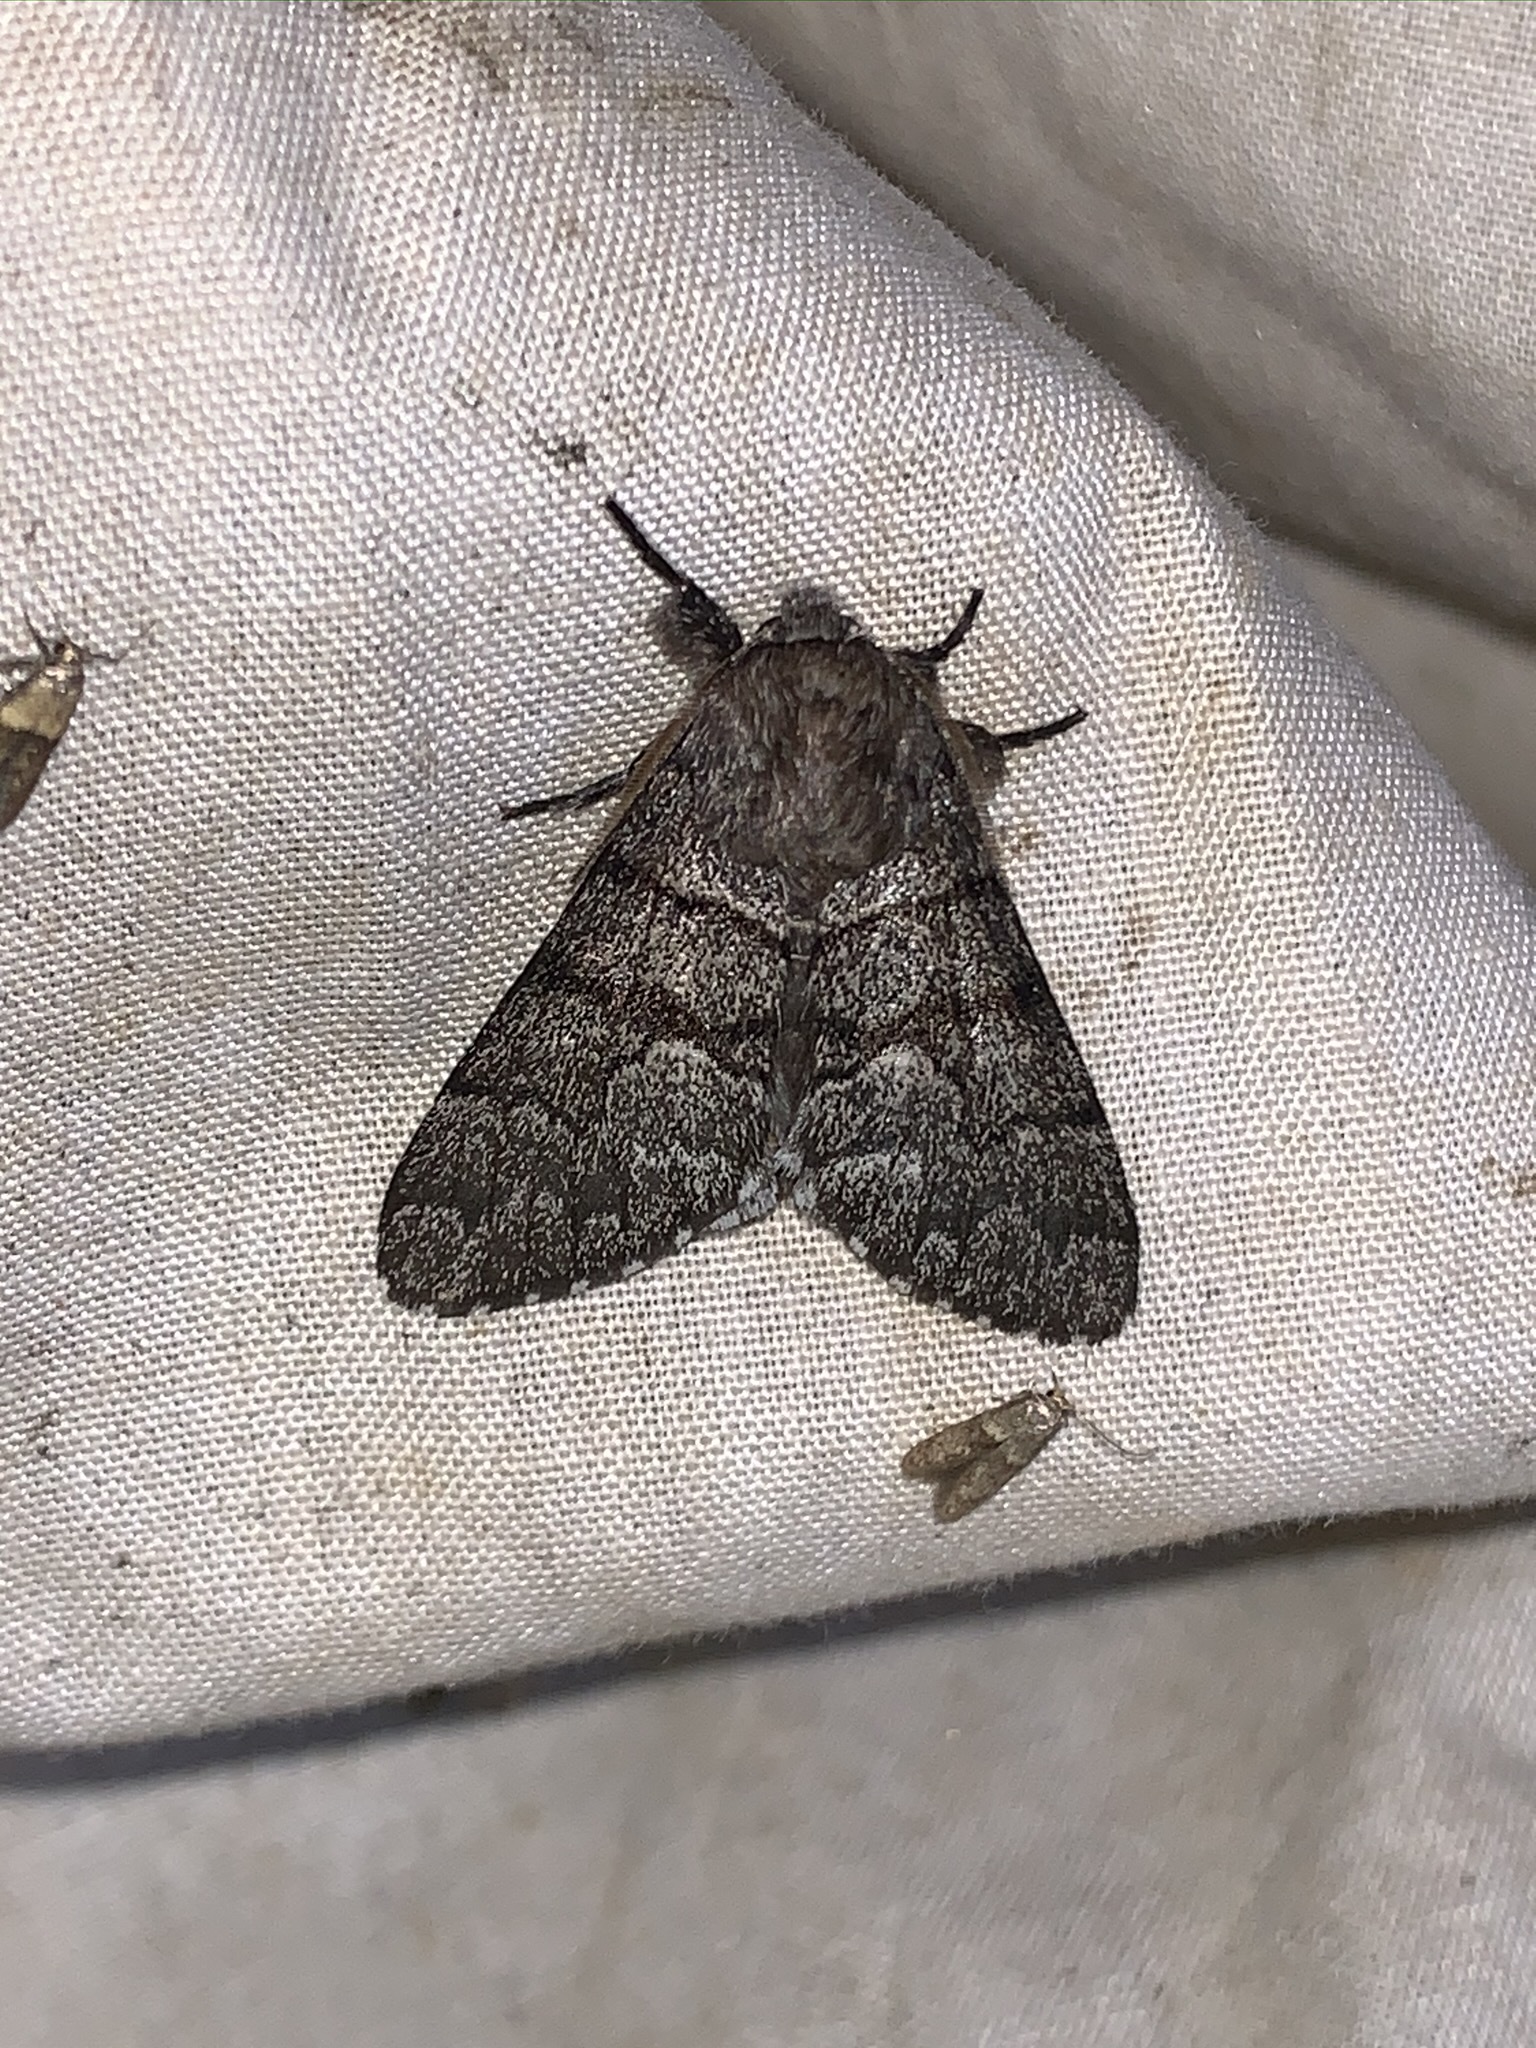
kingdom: Animalia
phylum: Arthropoda
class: Insecta
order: Lepidoptera
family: Noctuidae
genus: Panthea
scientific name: Panthea furcilla
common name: Eastern panthea moth
